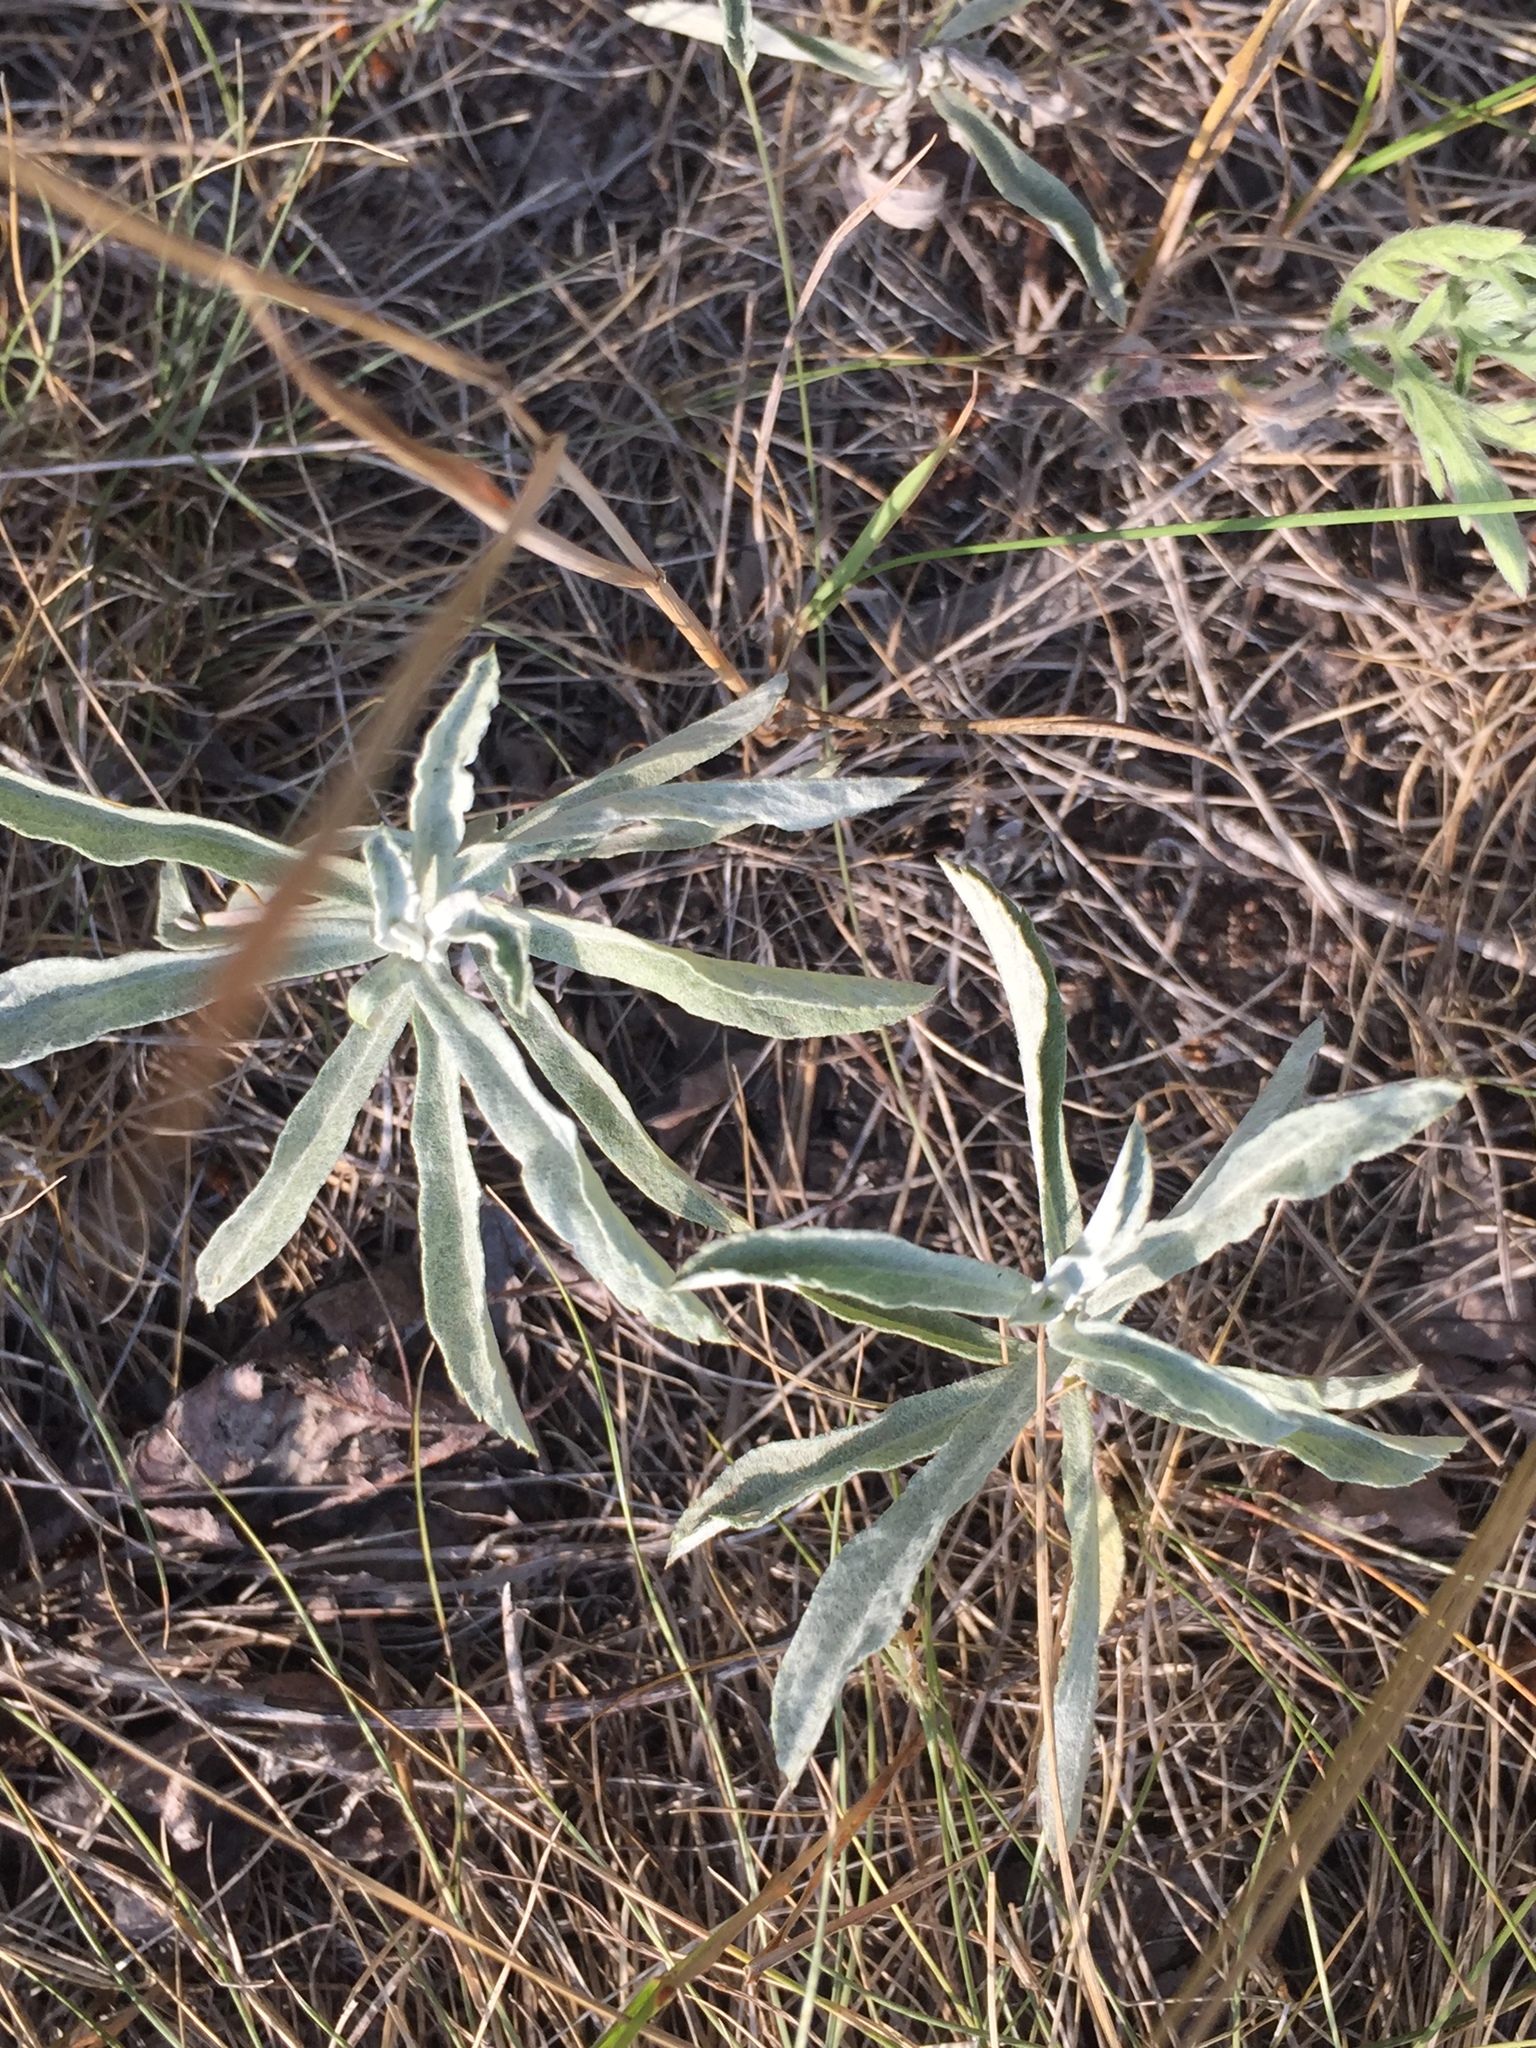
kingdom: Plantae
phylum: Tracheophyta
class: Magnoliopsida
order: Asterales
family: Asteraceae
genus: Artemisia
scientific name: Artemisia ludoviciana
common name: Western mugwort
